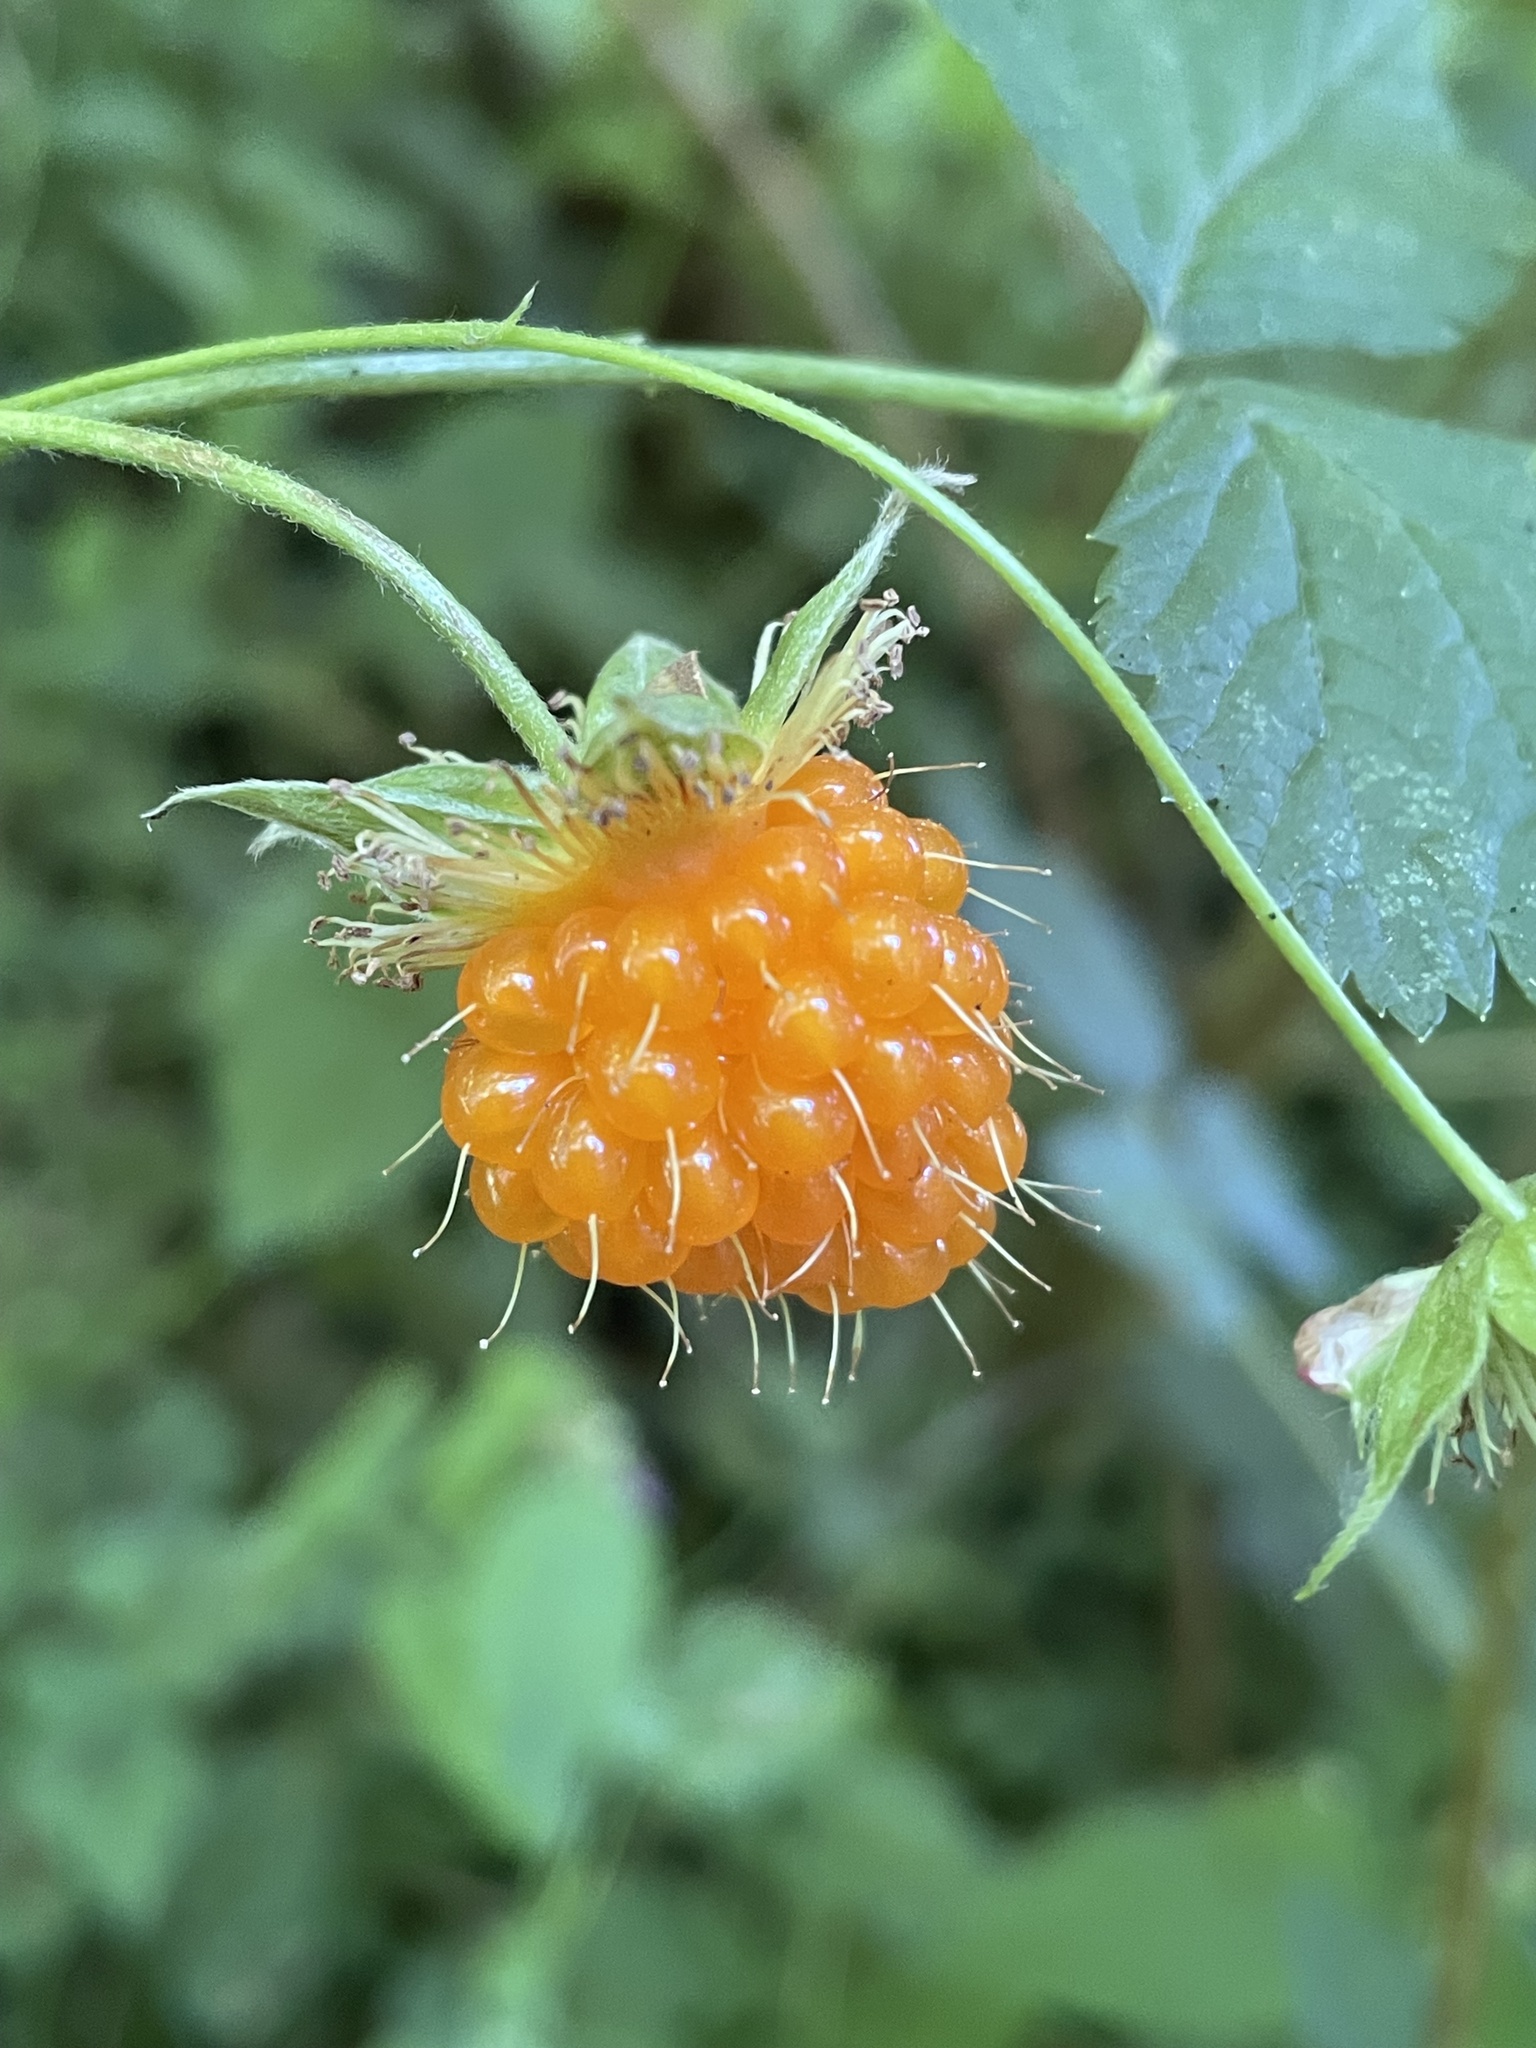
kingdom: Plantae
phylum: Tracheophyta
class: Magnoliopsida
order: Rosales
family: Rosaceae
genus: Rubus
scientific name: Rubus spectabilis
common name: Salmonberry
